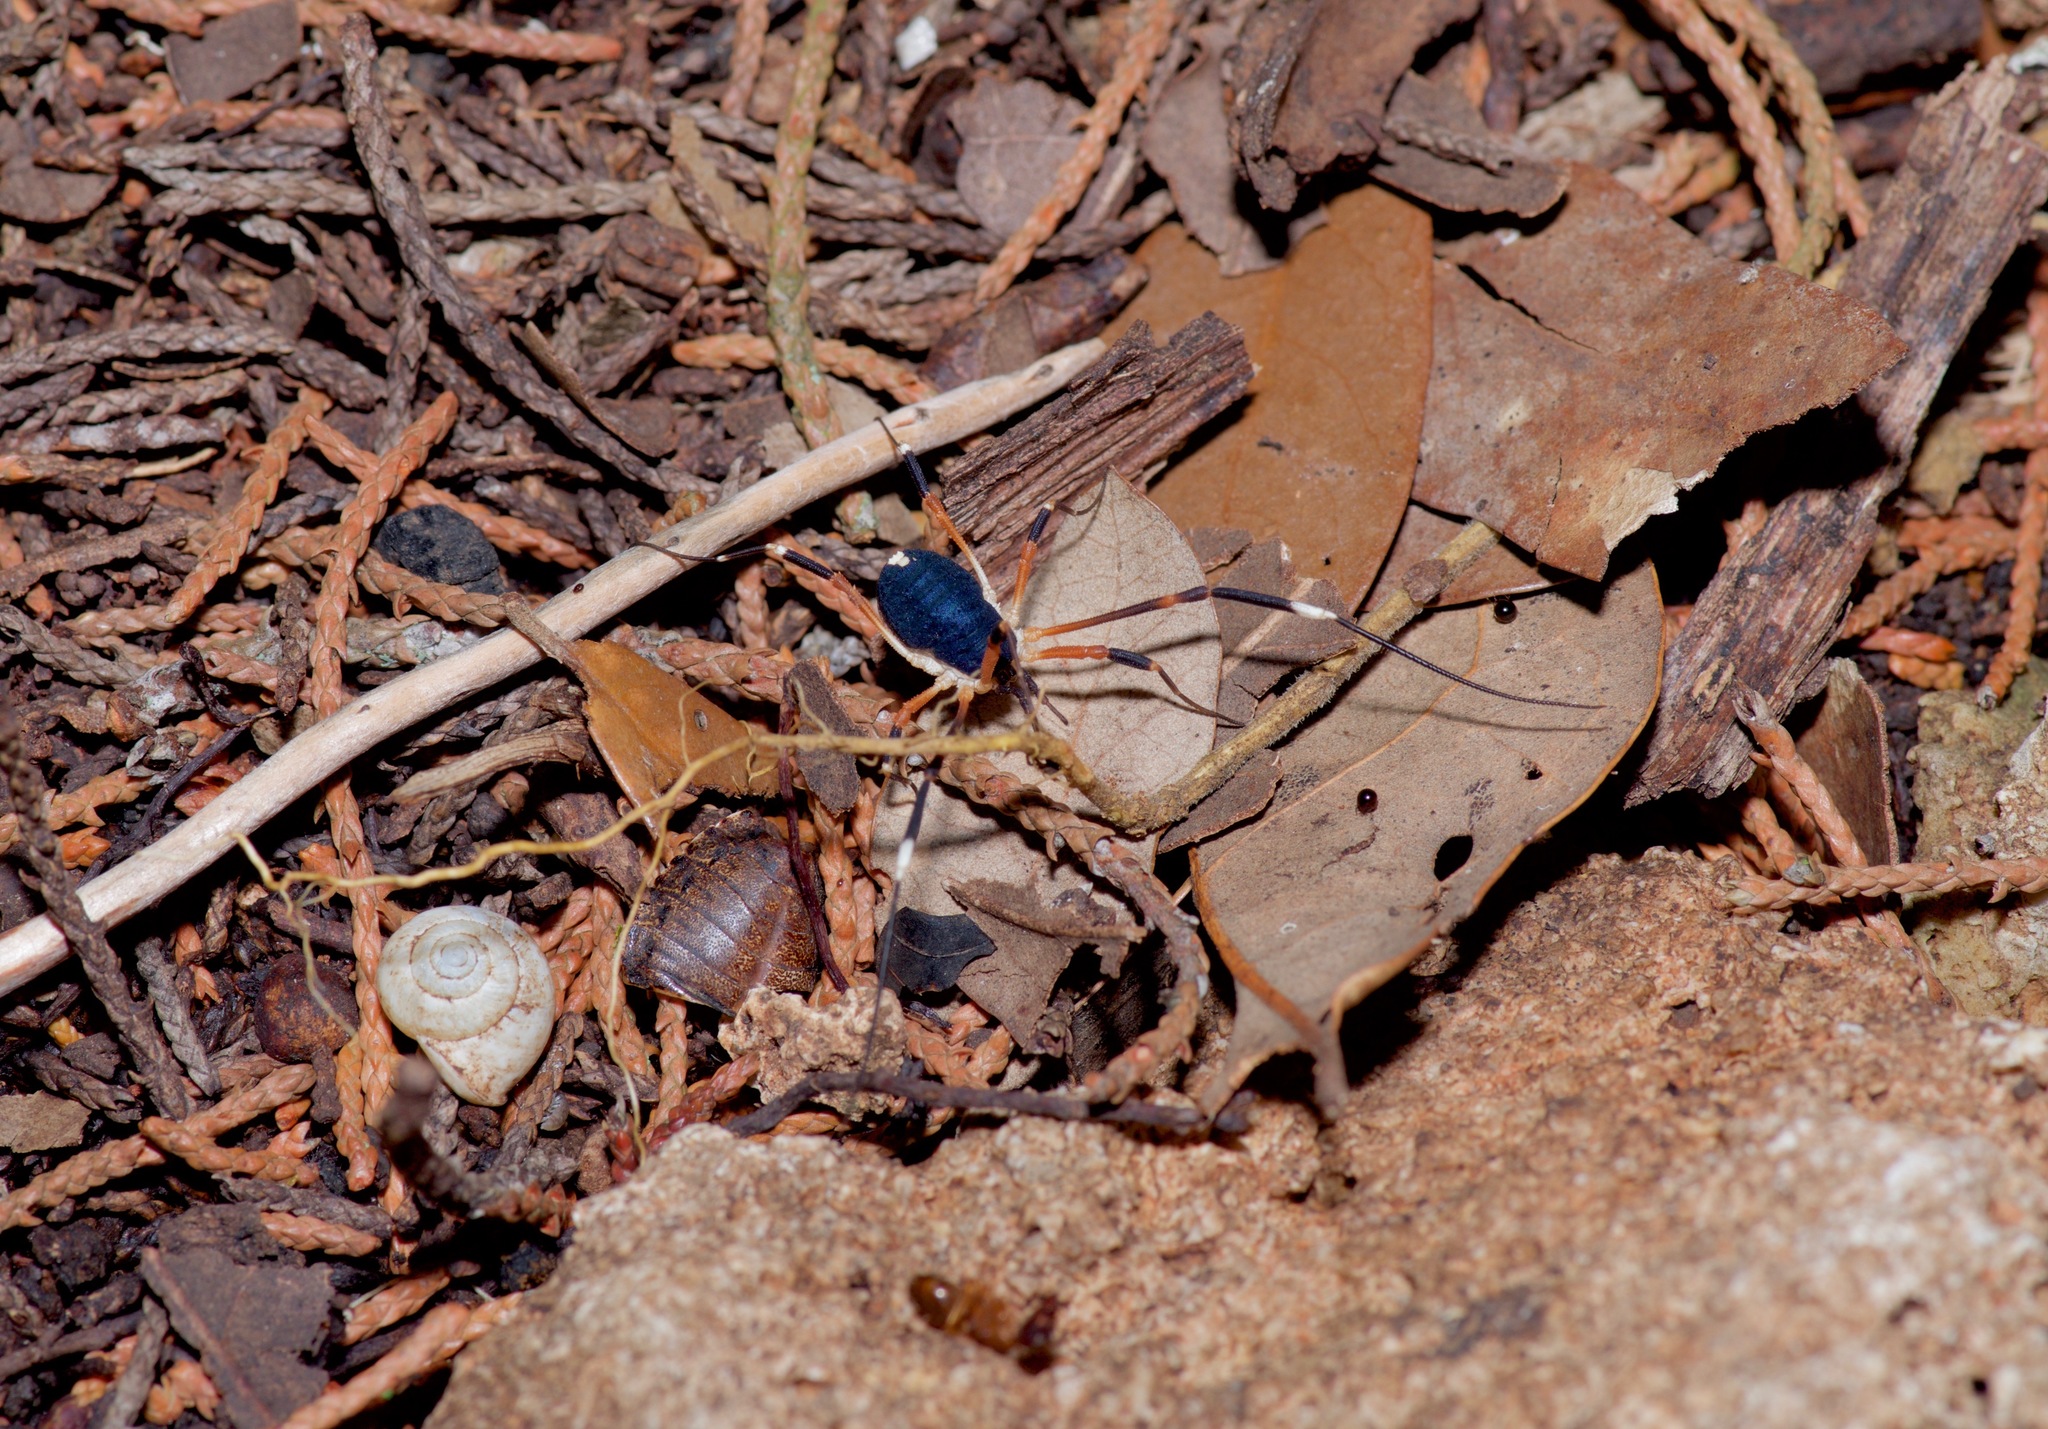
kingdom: Animalia
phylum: Arthropoda
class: Arachnida
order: Opiliones
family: Globipedidae
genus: Dalquestia
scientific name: Dalquestia formosa
